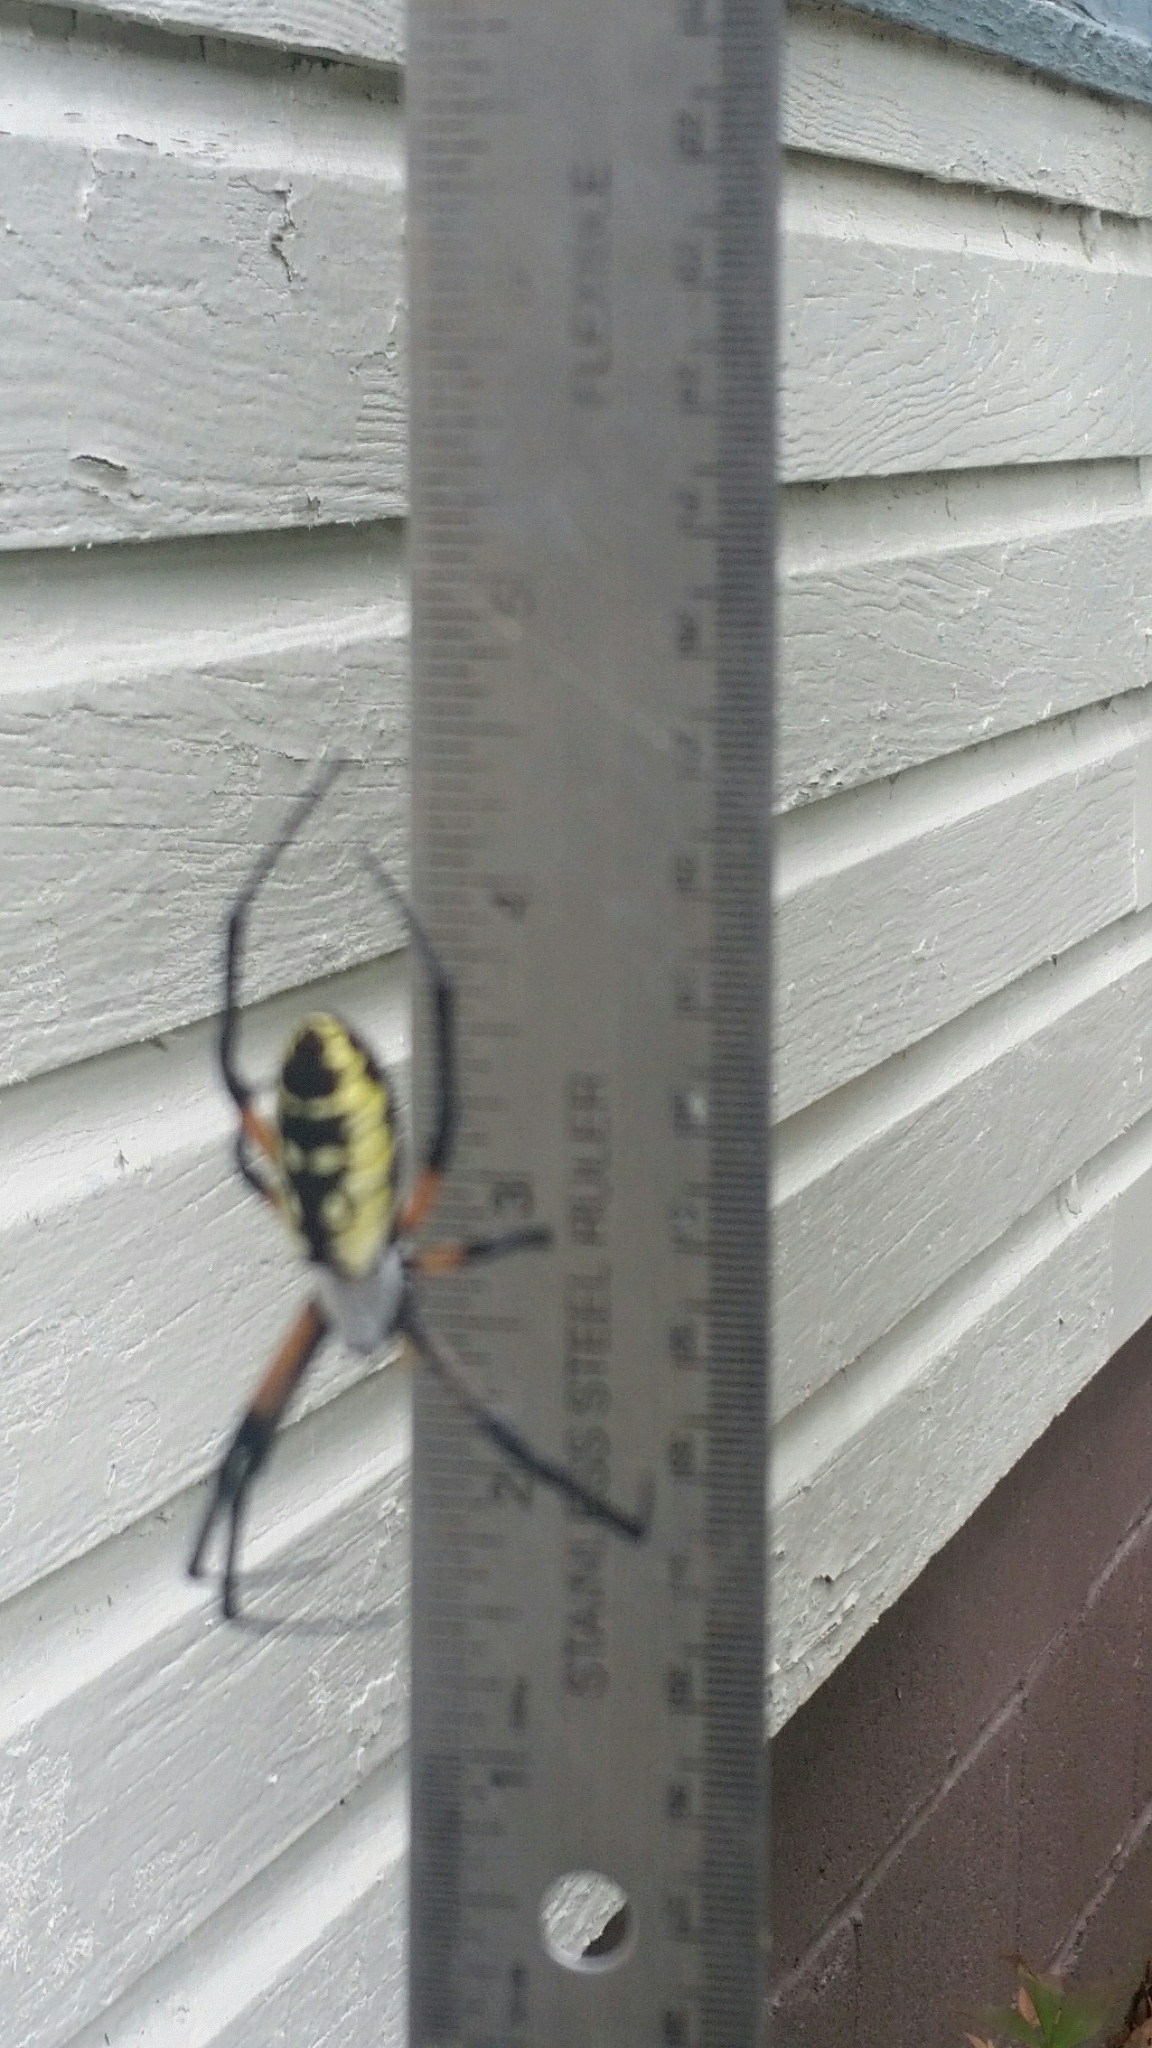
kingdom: Animalia
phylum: Arthropoda
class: Arachnida
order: Araneae
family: Araneidae
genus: Argiope
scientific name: Argiope aurantia
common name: Orb weavers
